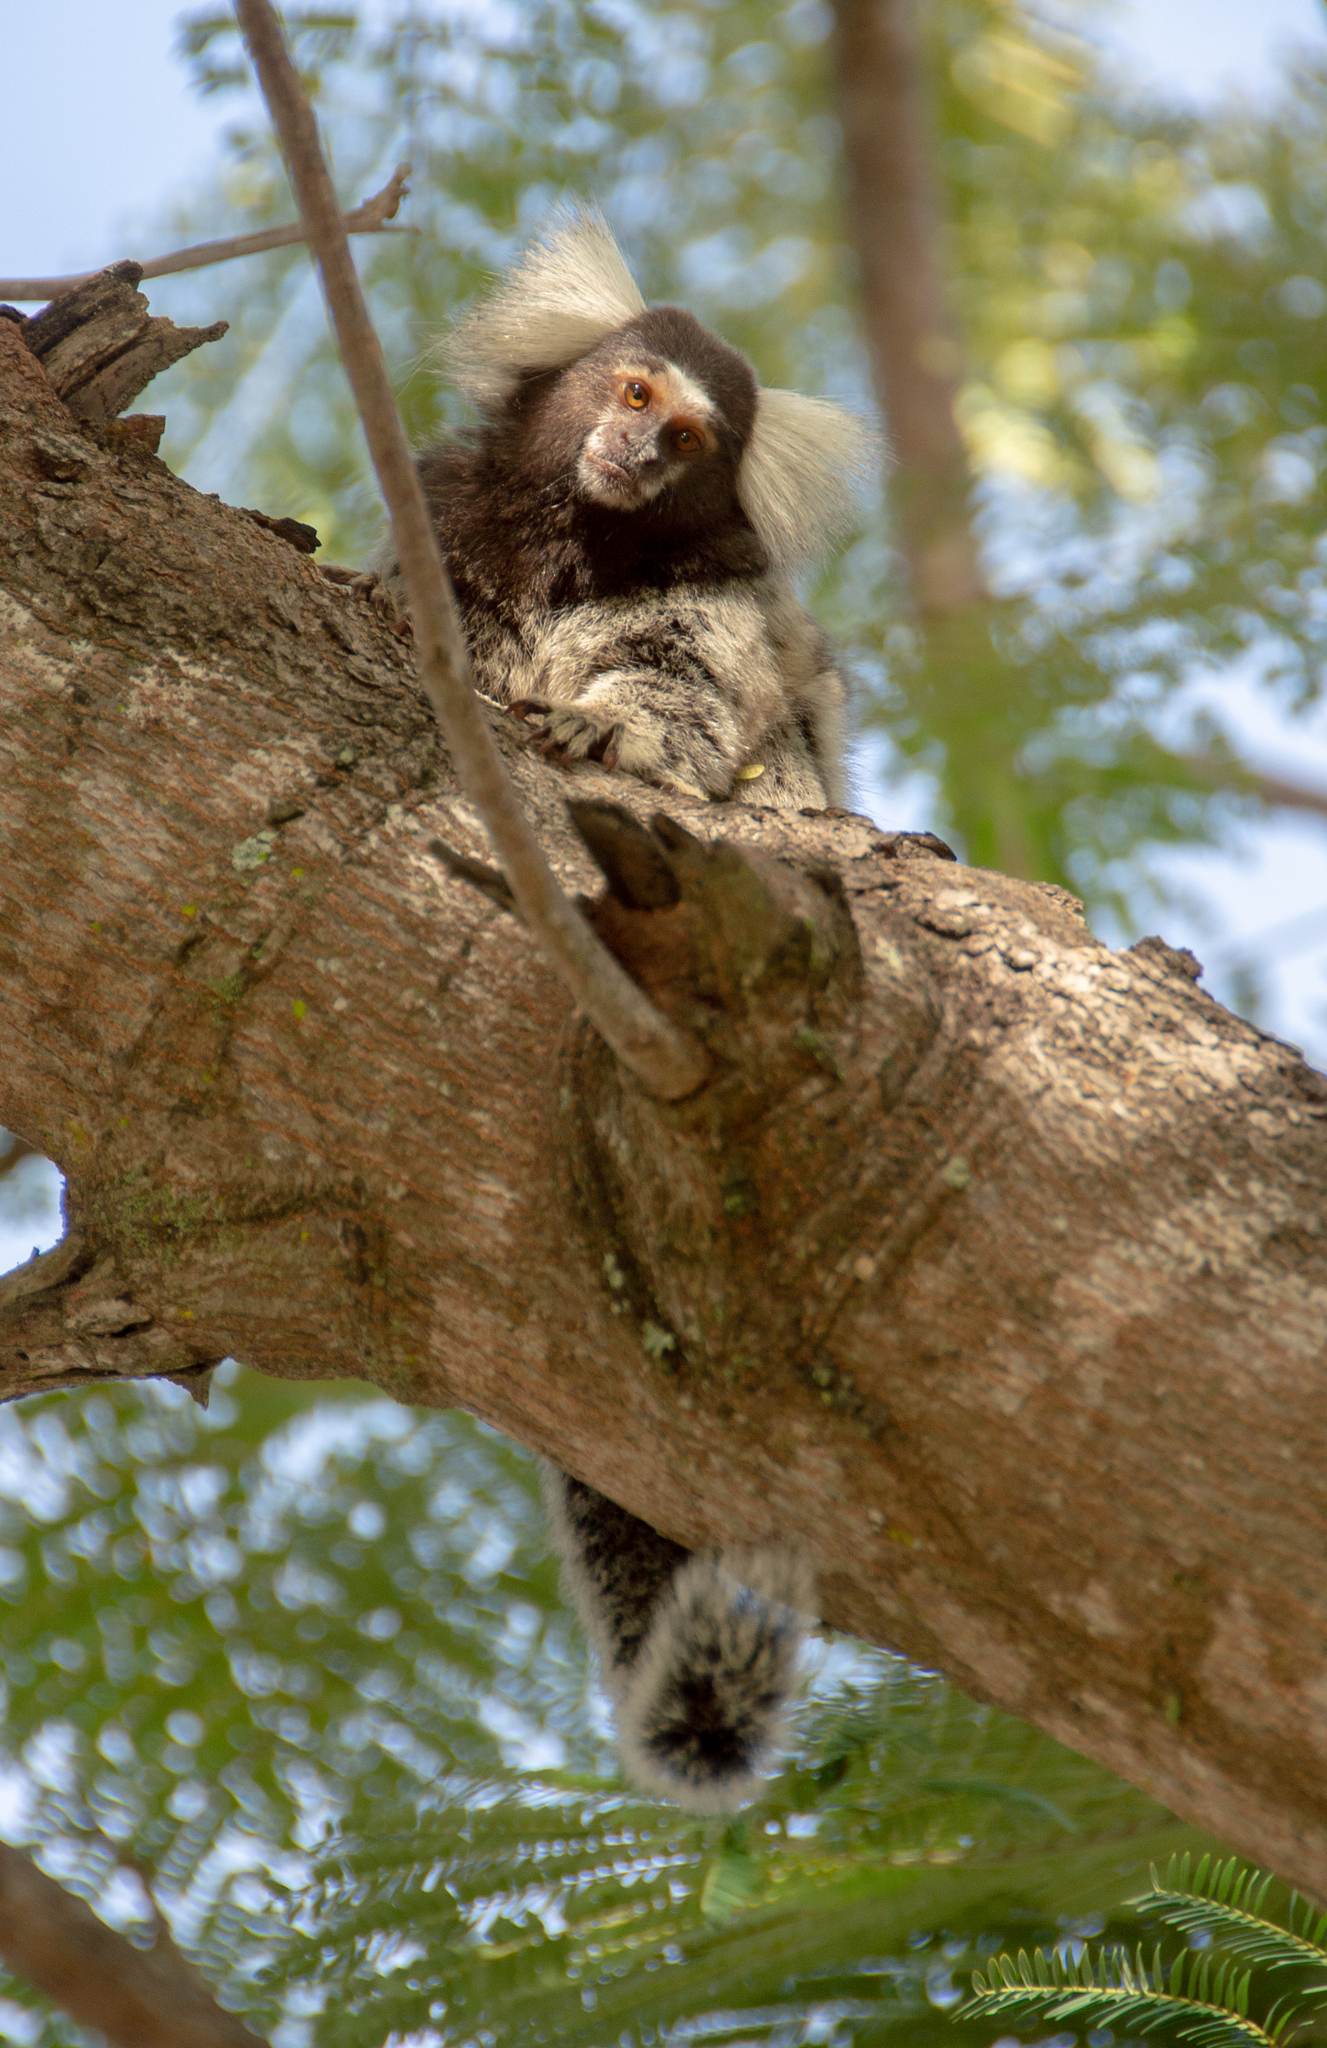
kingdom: Animalia
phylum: Chordata
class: Mammalia
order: Primates
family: Callitrichidae
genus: Callithrix
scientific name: Callithrix jacchus
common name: Common marmoset
